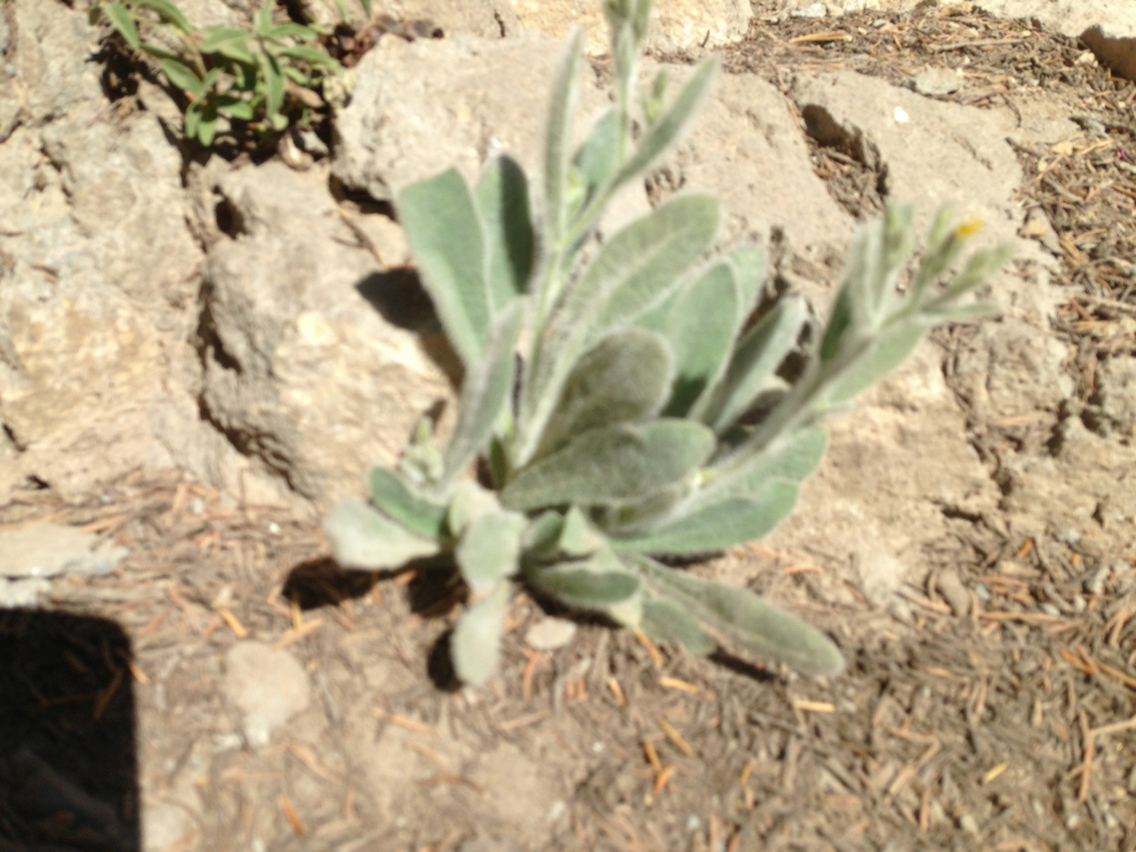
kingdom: Plantae
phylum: Tracheophyta
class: Magnoliopsida
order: Asterales
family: Asteraceae
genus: Hieracium
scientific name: Hieracium horridum
